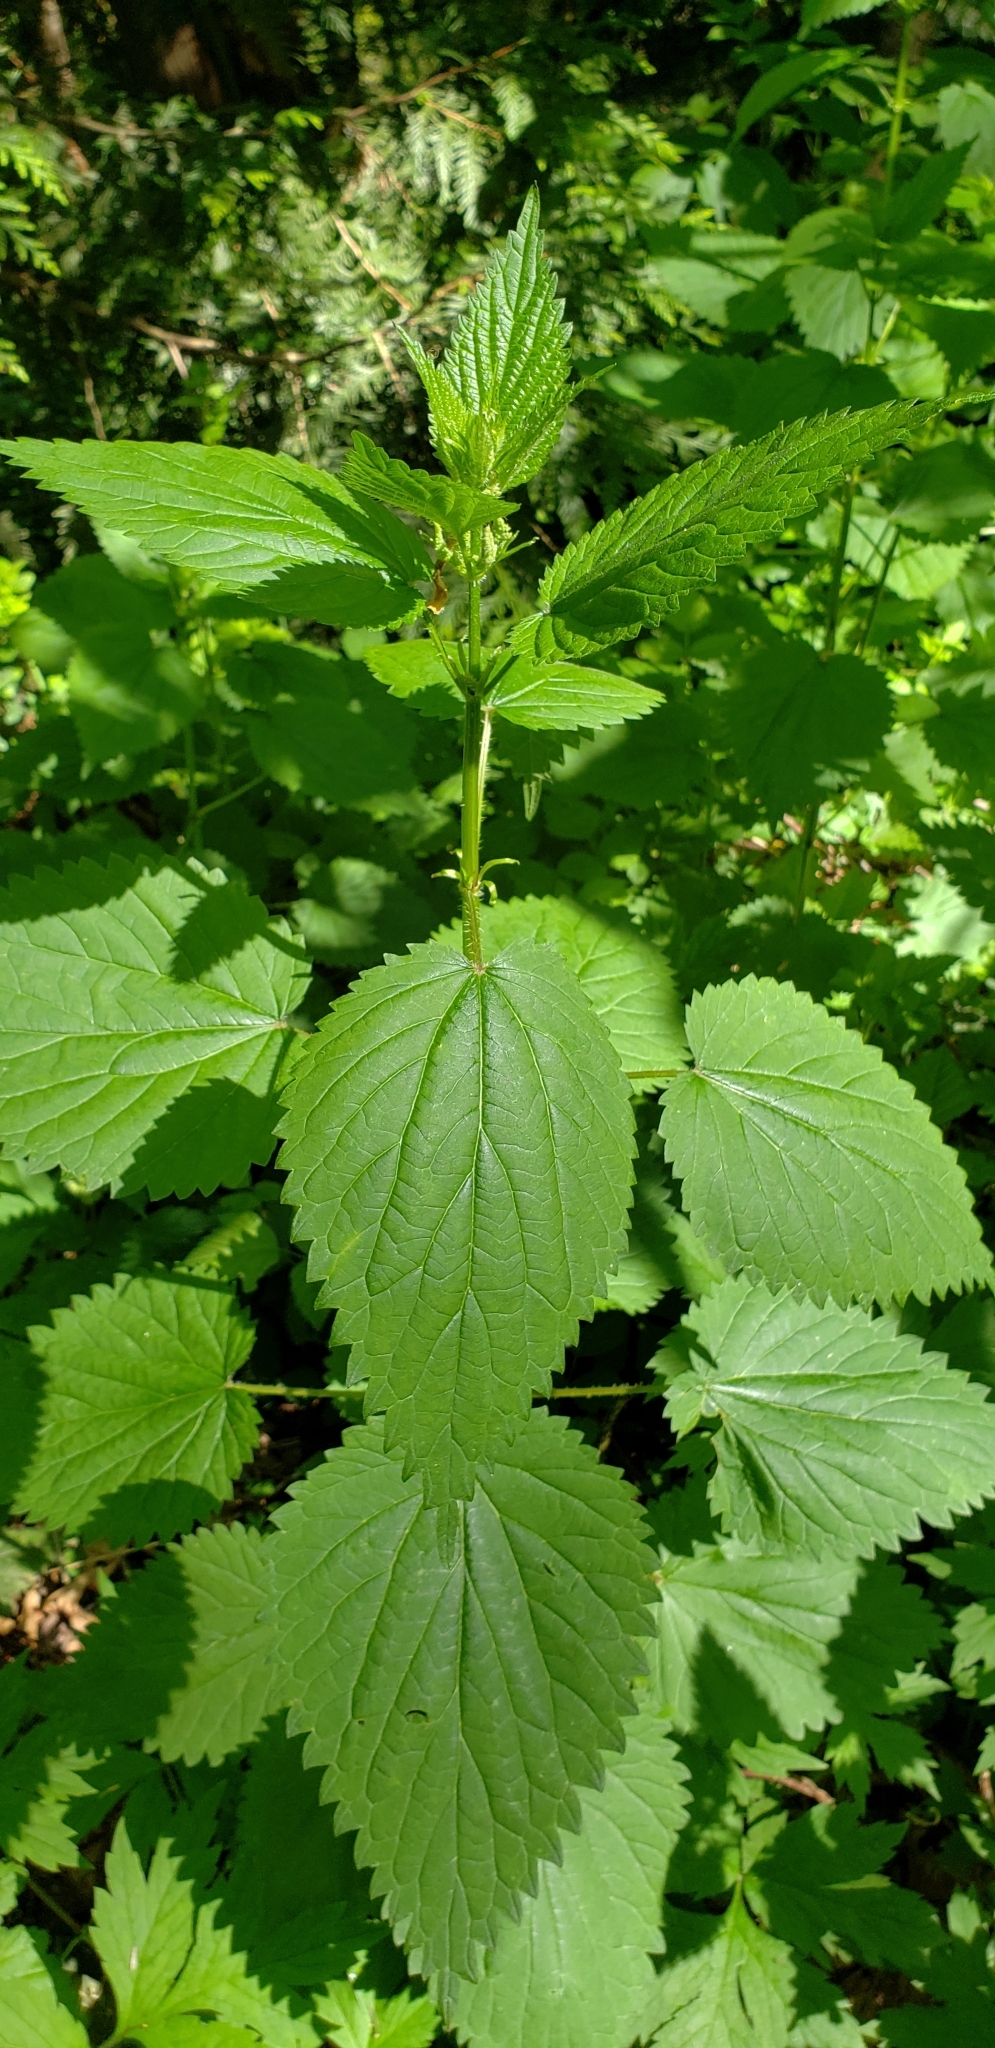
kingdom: Plantae
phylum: Tracheophyta
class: Magnoliopsida
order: Rosales
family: Urticaceae
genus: Urtica
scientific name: Urtica dioica
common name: Common nettle
